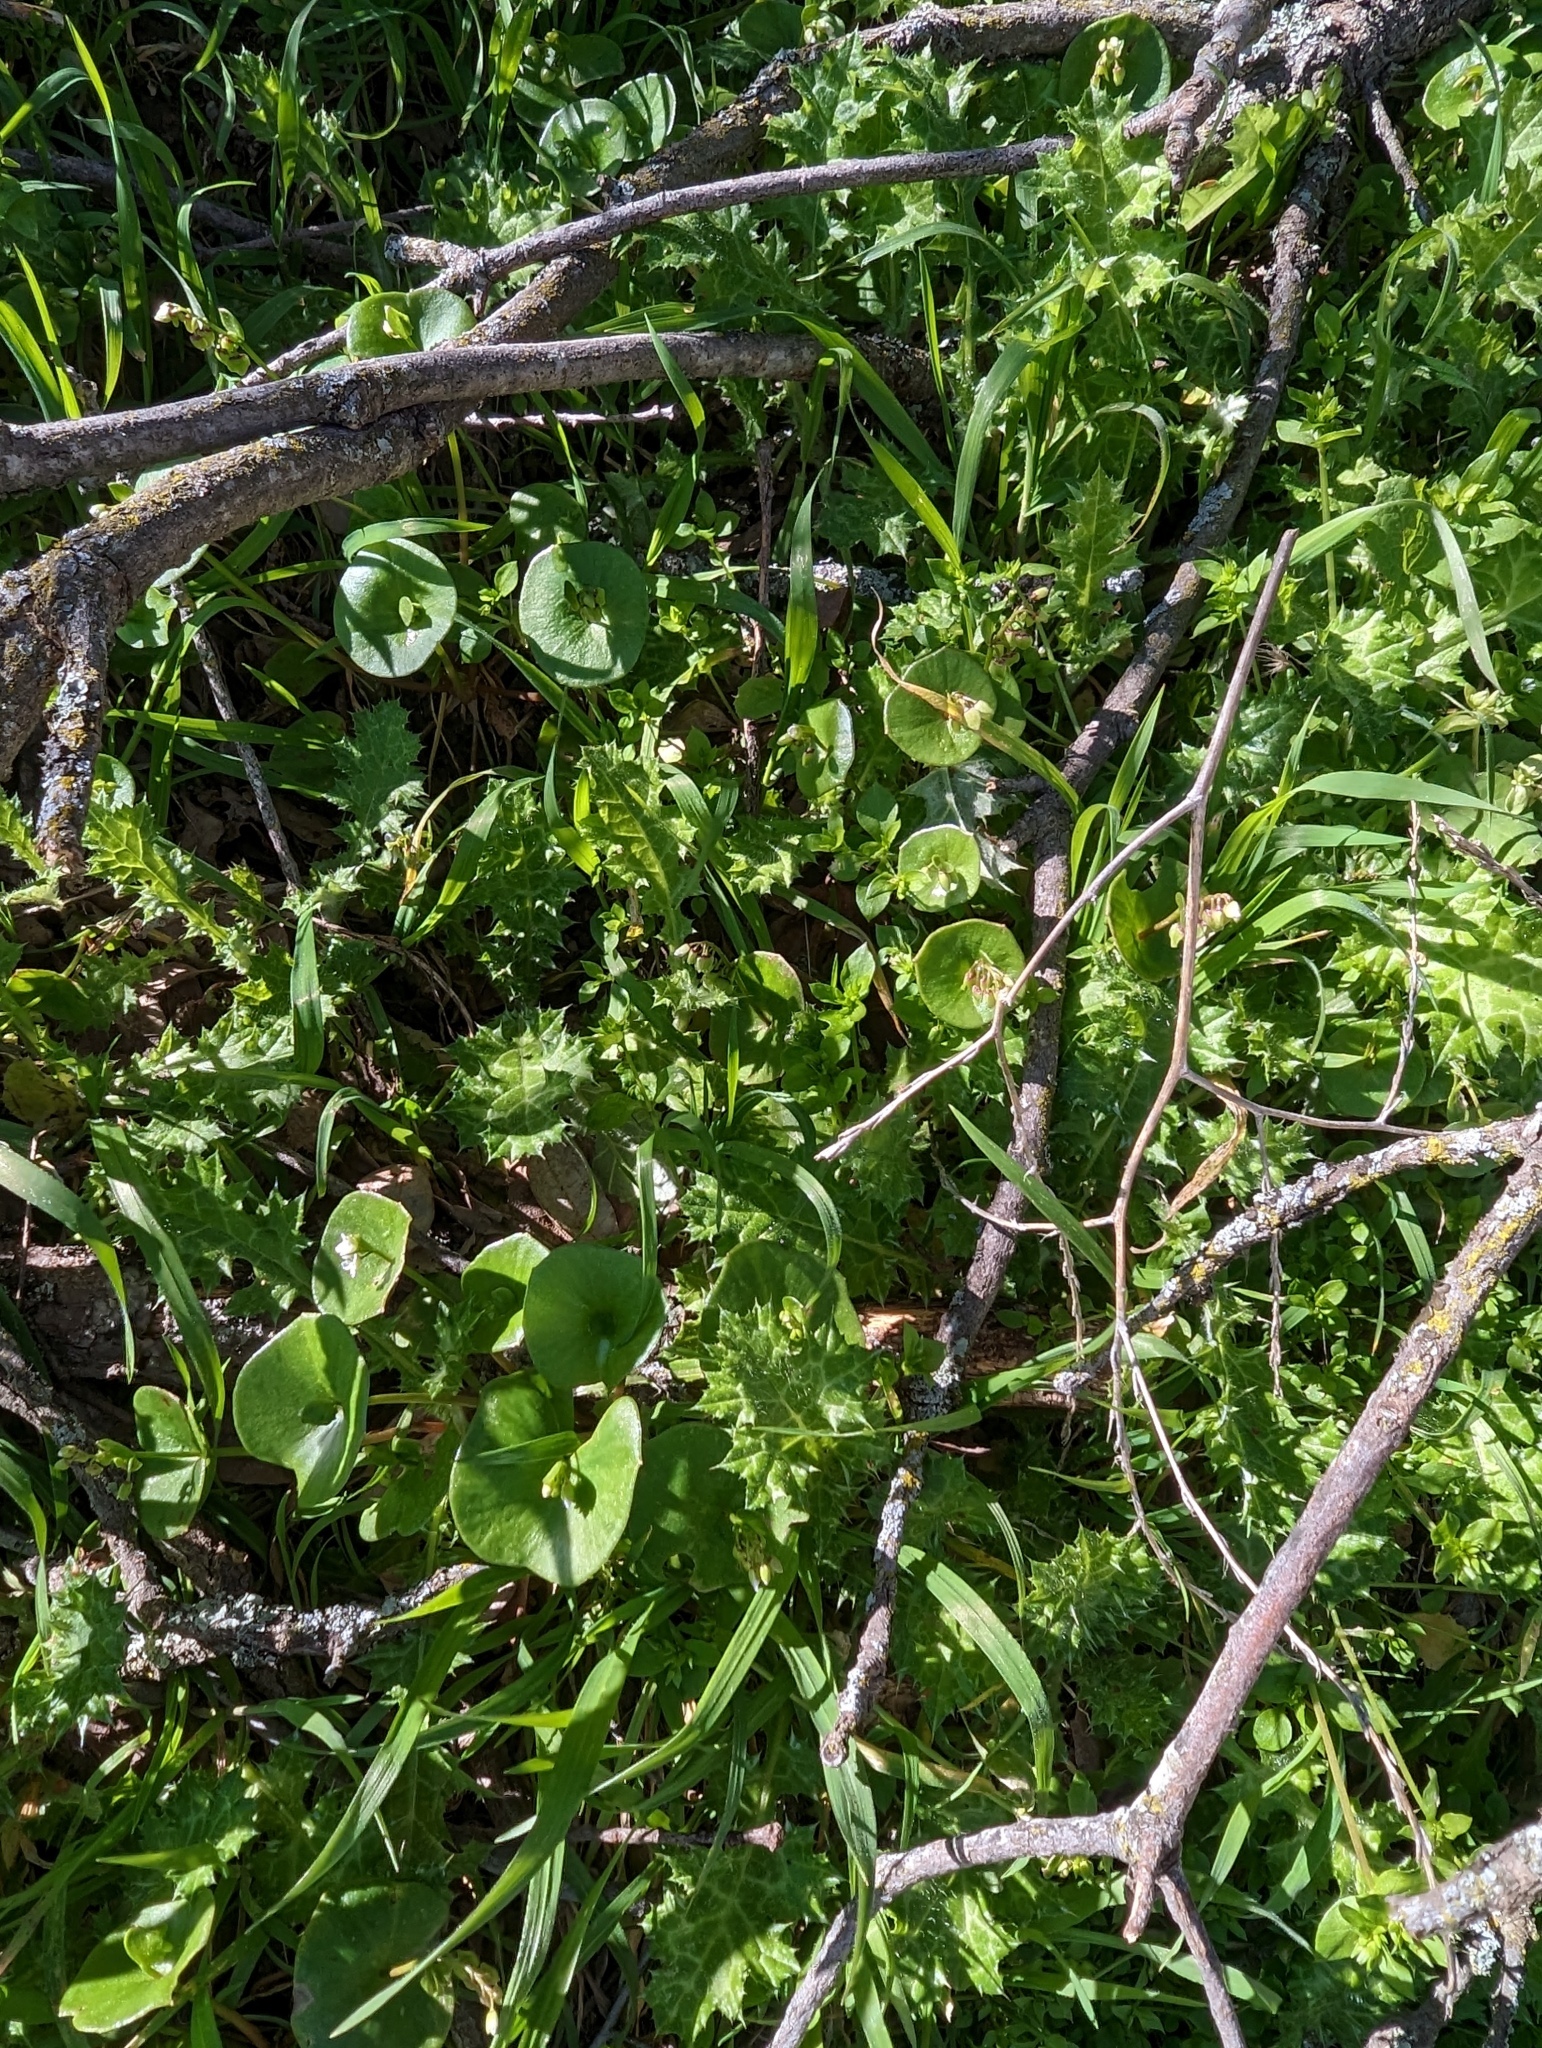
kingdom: Plantae
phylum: Tracheophyta
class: Magnoliopsida
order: Caryophyllales
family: Montiaceae
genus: Claytonia
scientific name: Claytonia perfoliata
